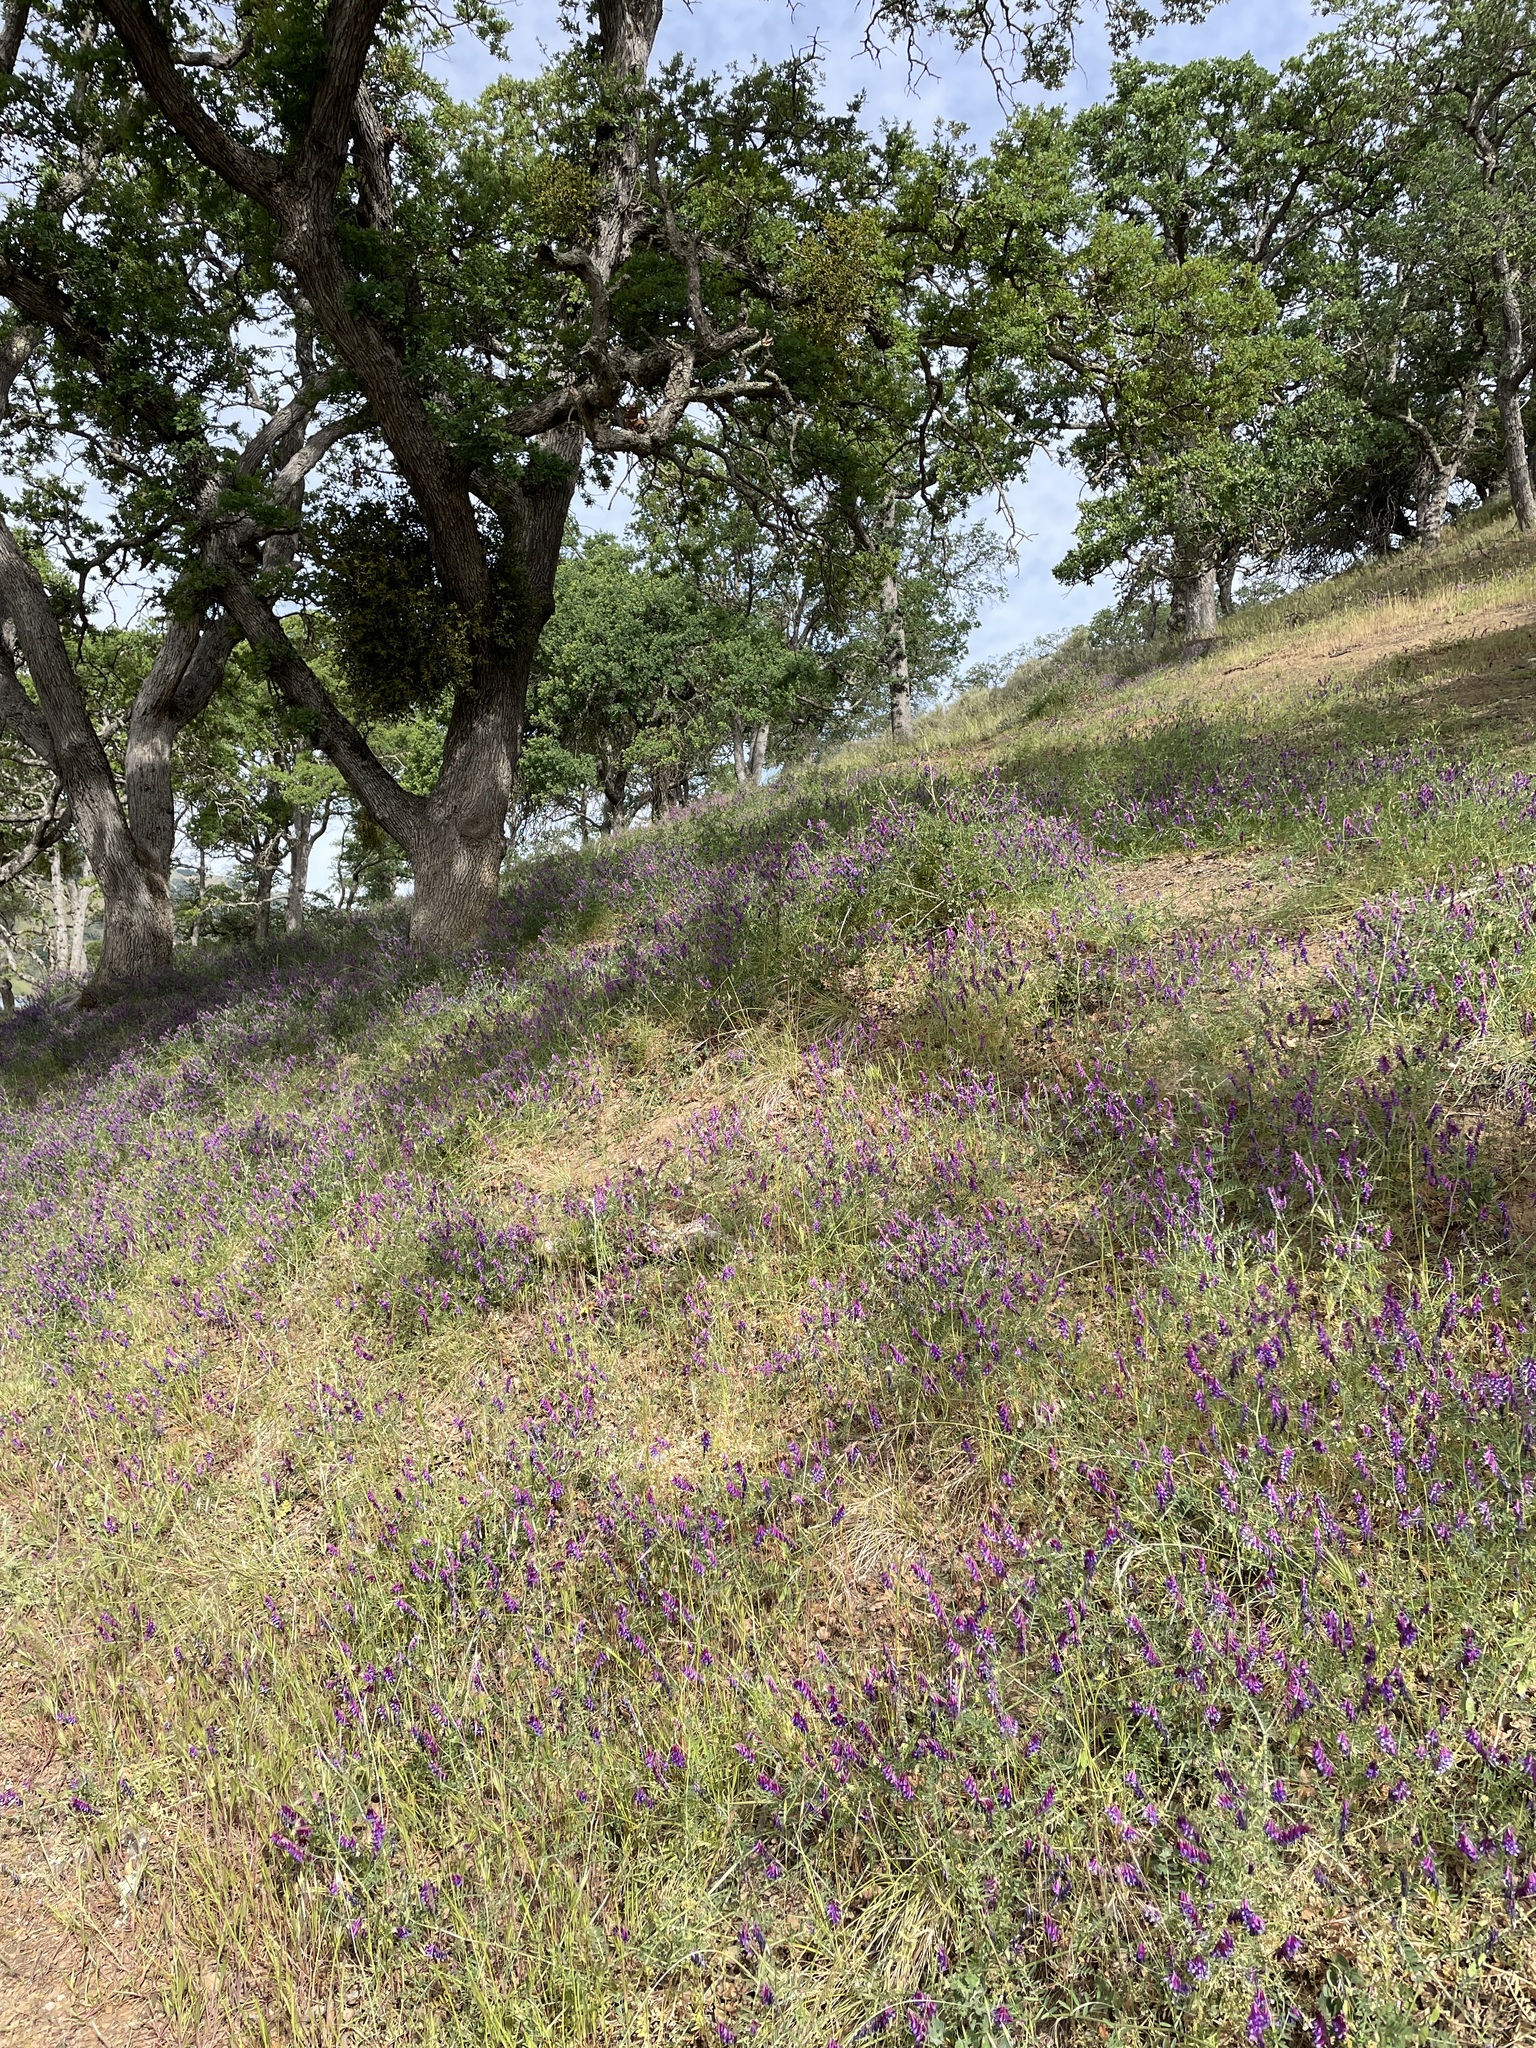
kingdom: Plantae
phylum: Tracheophyta
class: Magnoliopsida
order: Fabales
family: Fabaceae
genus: Vicia
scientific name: Vicia villosa
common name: Fodder vetch
